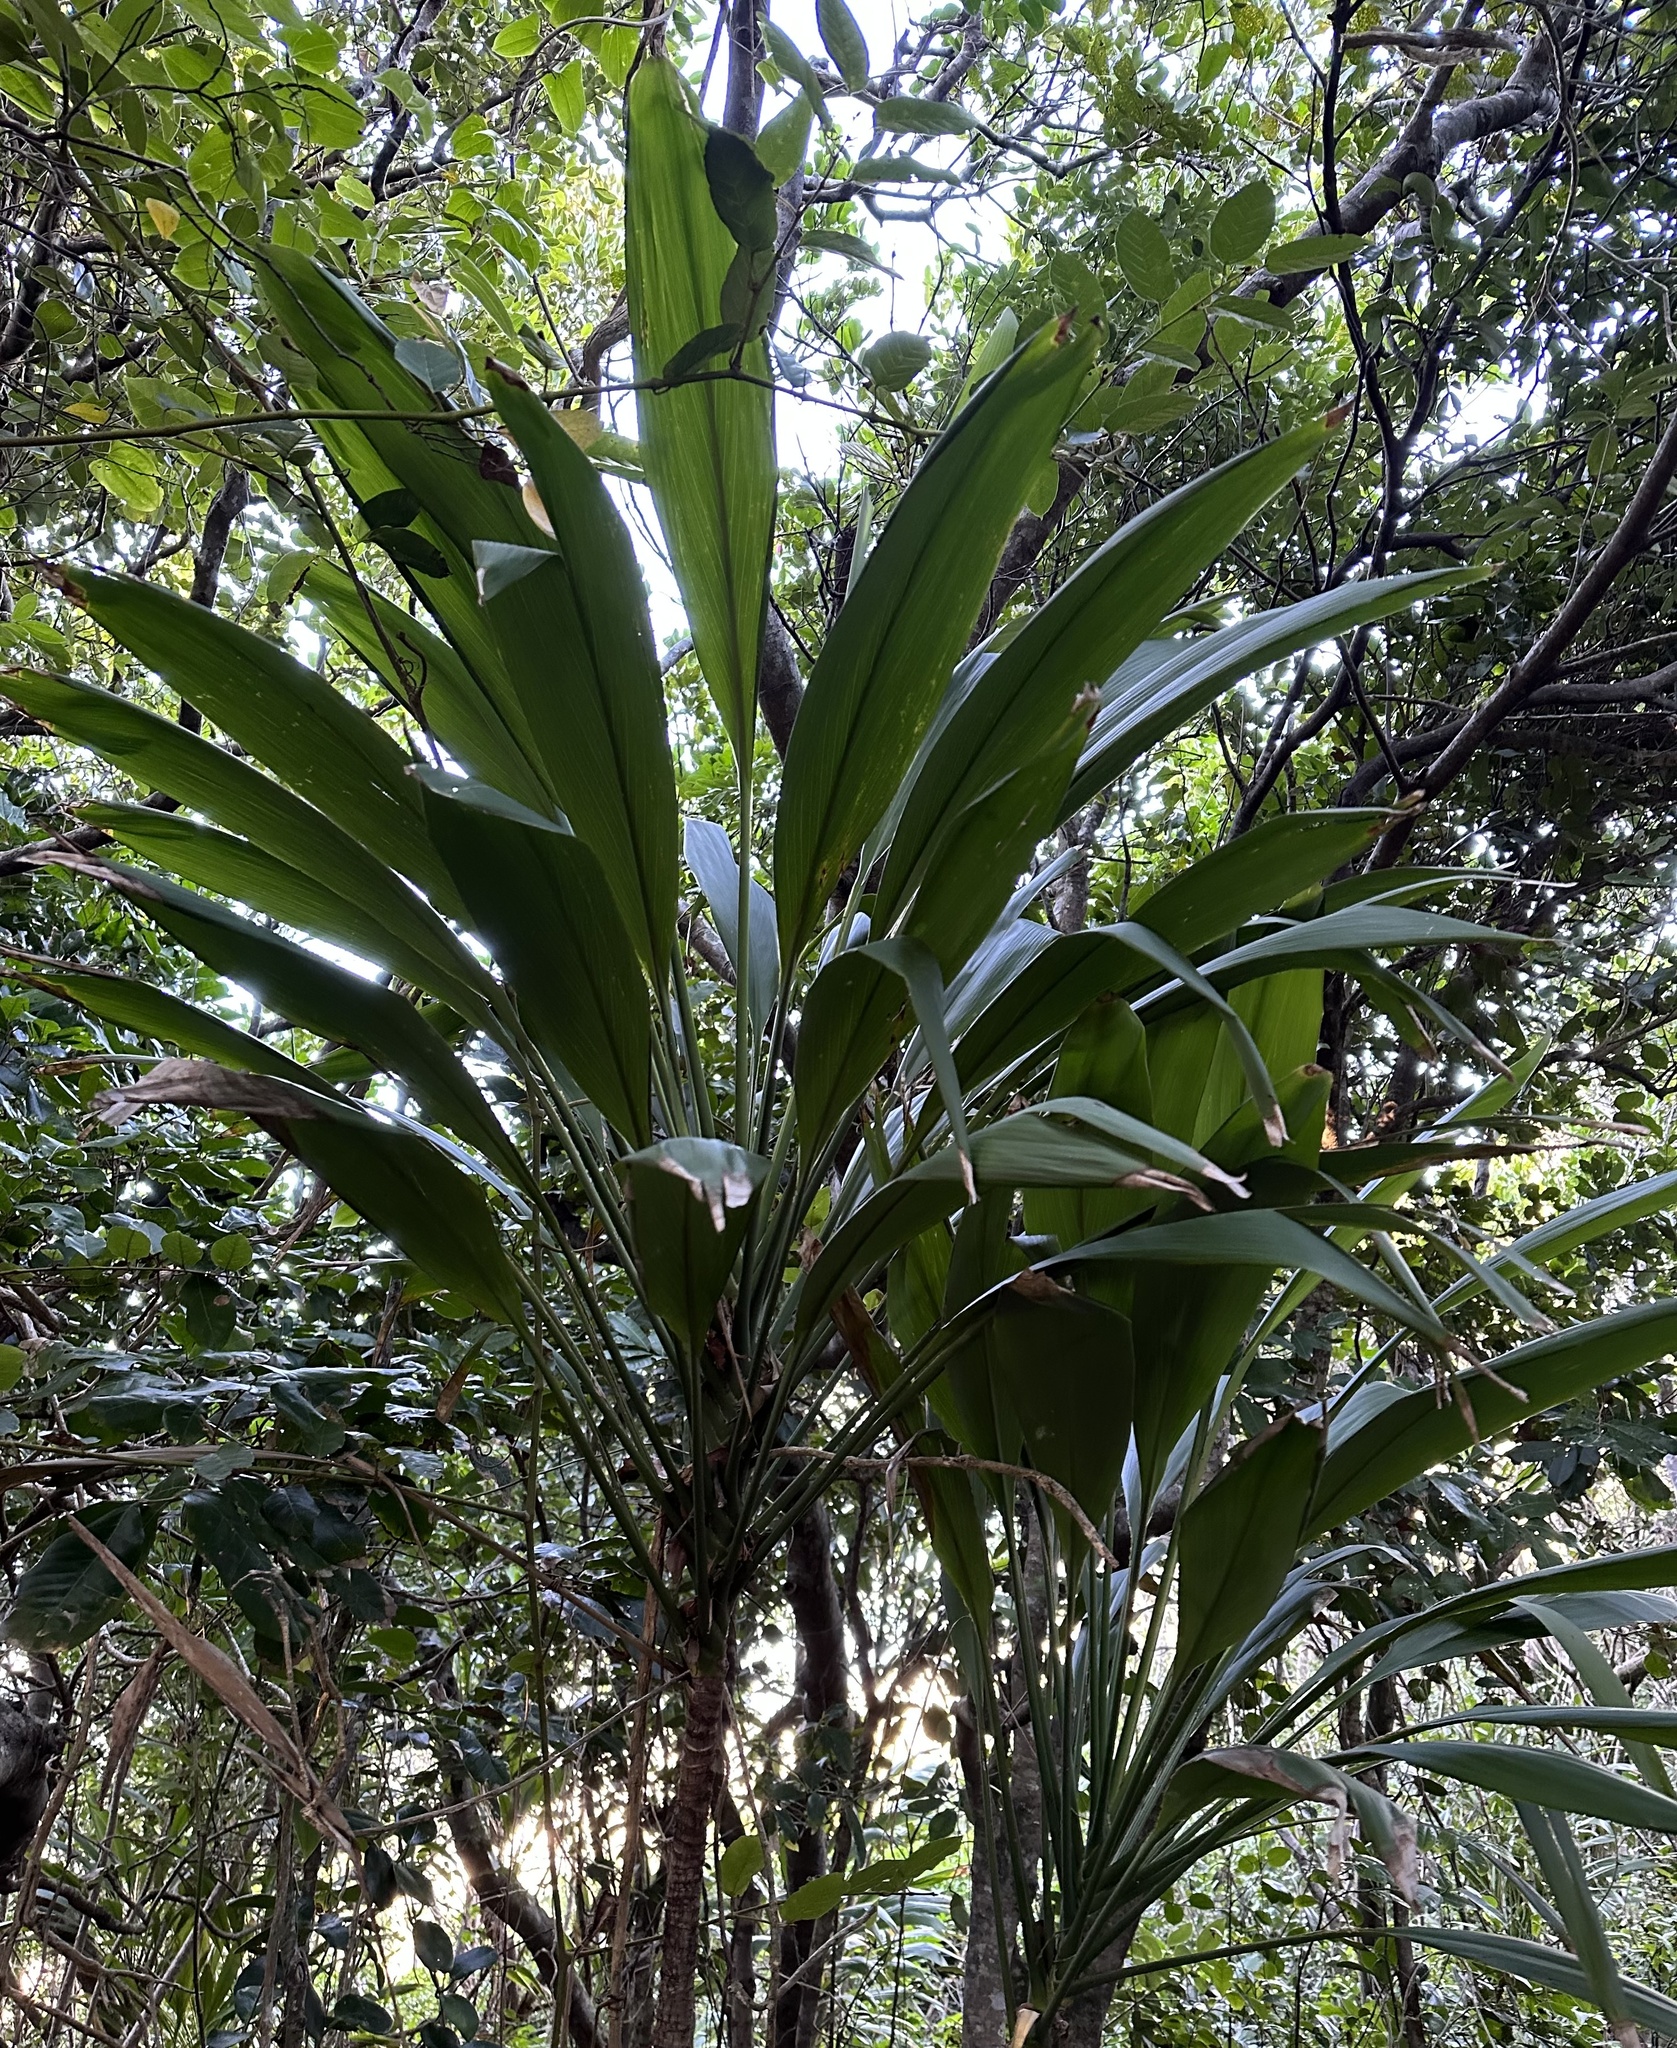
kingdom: Plantae
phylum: Tracheophyta
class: Liliopsida
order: Asparagales
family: Asparagaceae
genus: Cordyline
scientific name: Cordyline petiolaris
